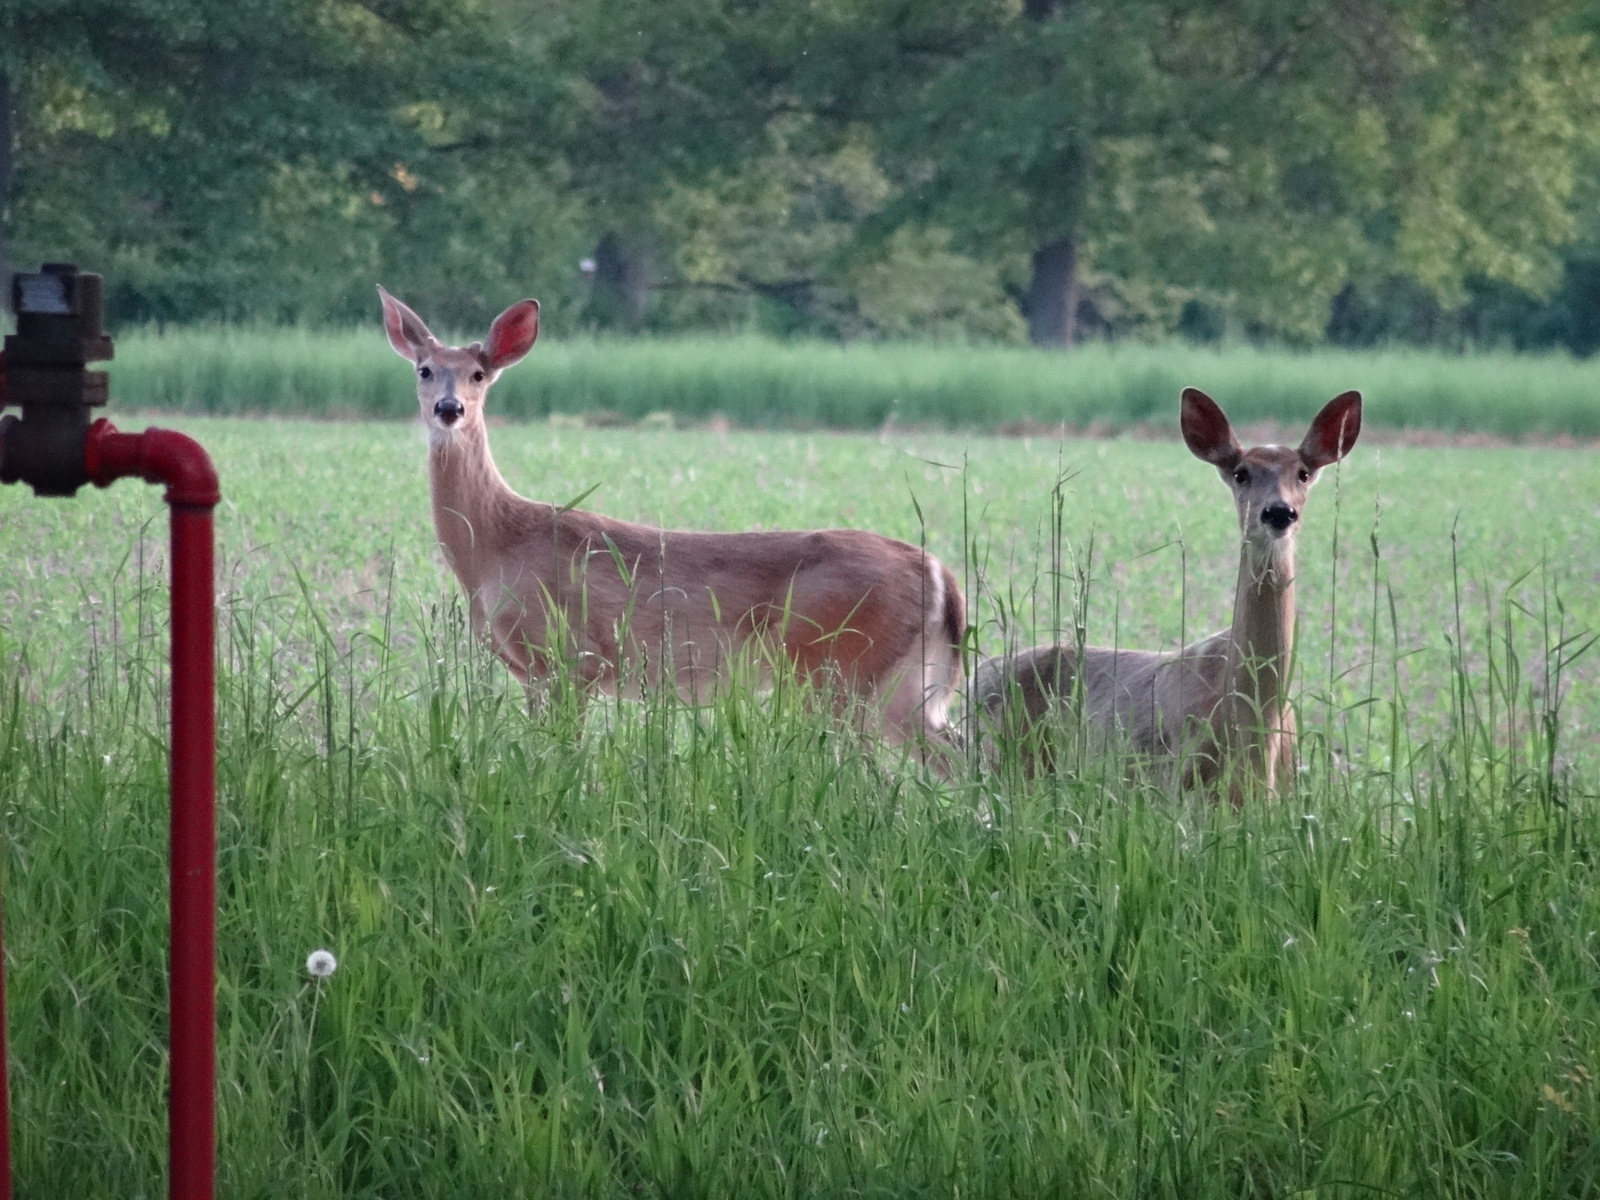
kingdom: Animalia
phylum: Chordata
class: Mammalia
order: Artiodactyla
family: Cervidae
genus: Odocoileus
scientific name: Odocoileus virginianus
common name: White-tailed deer
